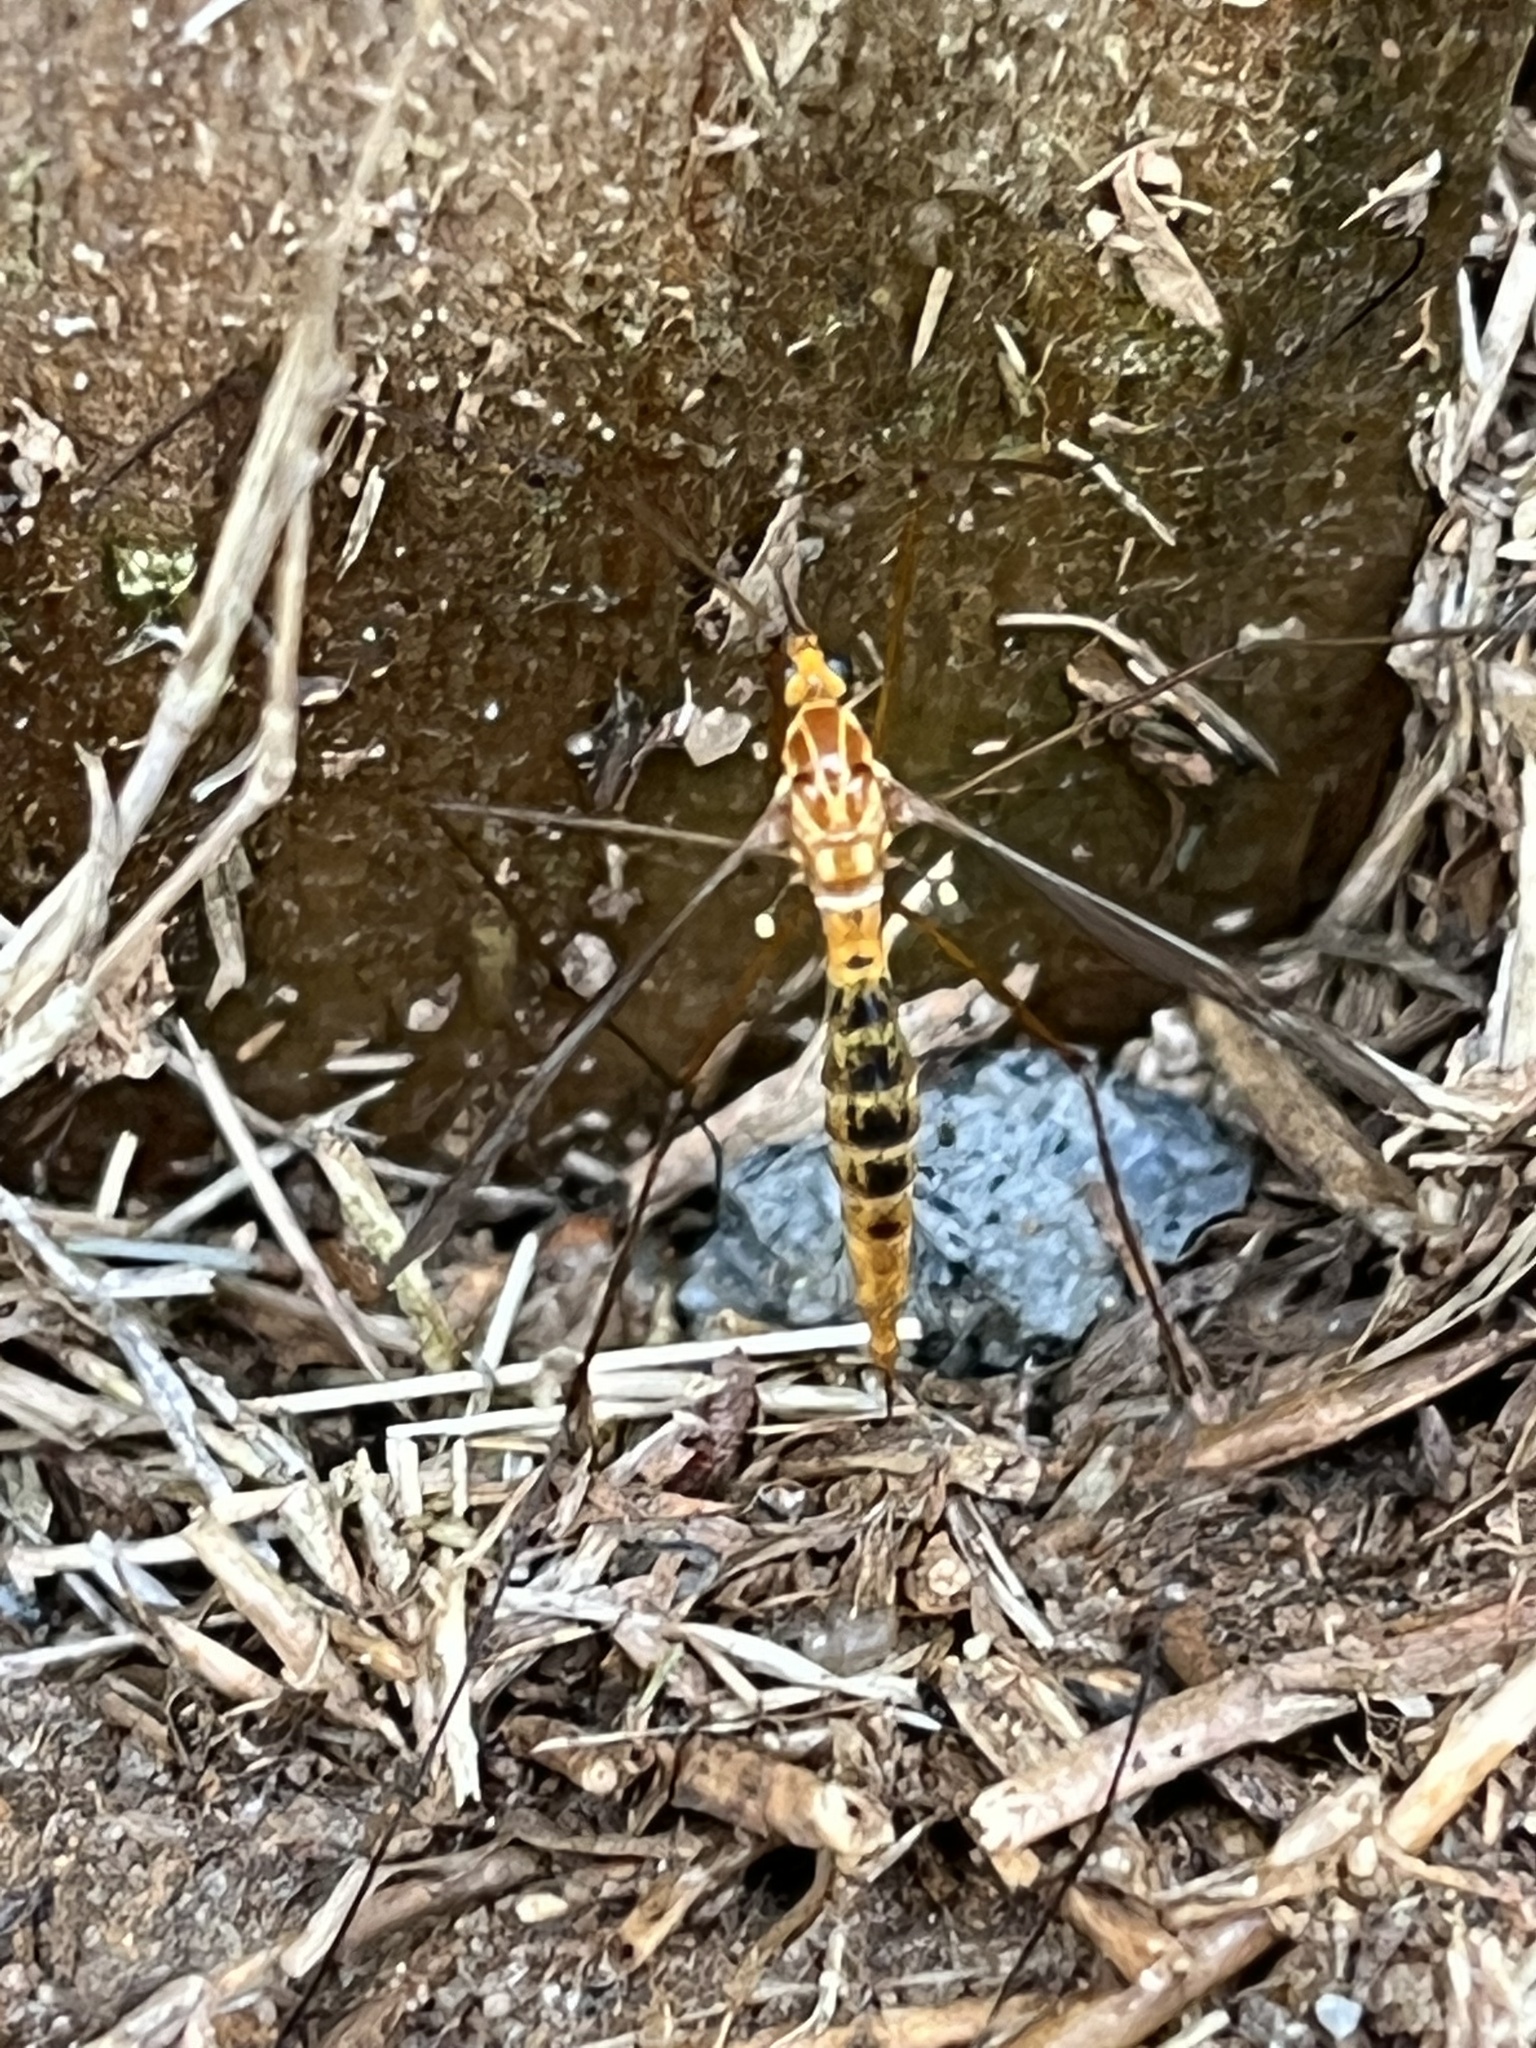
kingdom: Animalia
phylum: Arthropoda
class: Insecta
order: Diptera
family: Tipulidae
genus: Nephrotoma
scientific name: Nephrotoma ferruginea
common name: Ferruginous tiger crane fly
